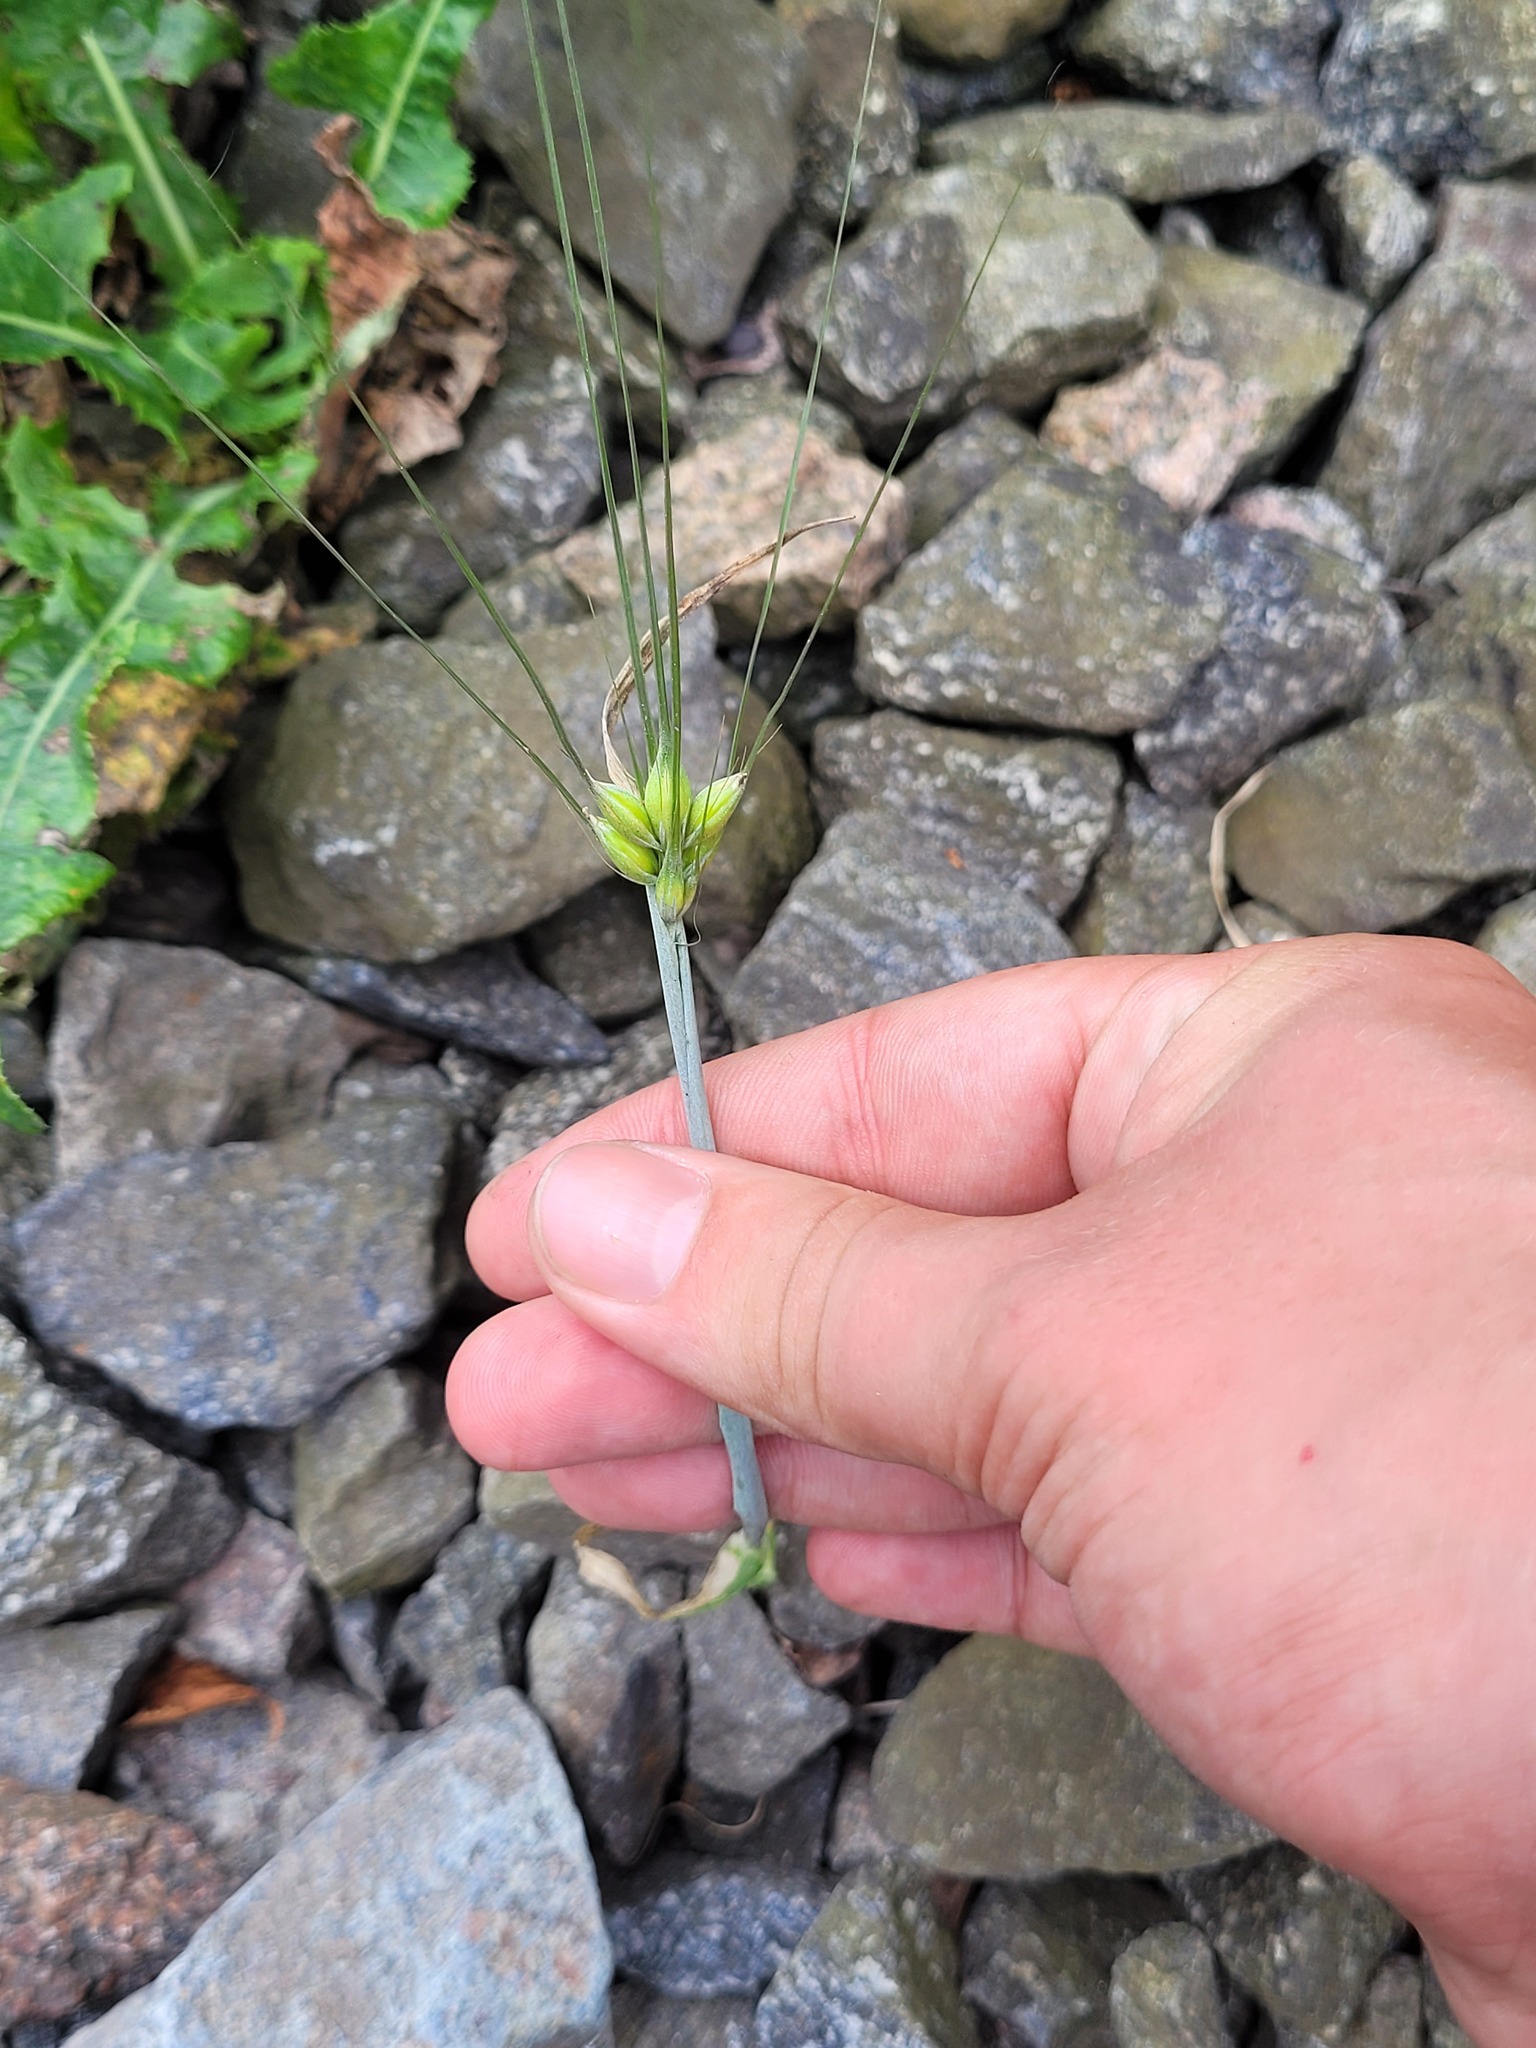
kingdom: Plantae
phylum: Tracheophyta
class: Liliopsida
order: Poales
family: Poaceae
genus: Hordeum
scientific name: Hordeum vulgare
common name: Common barley
